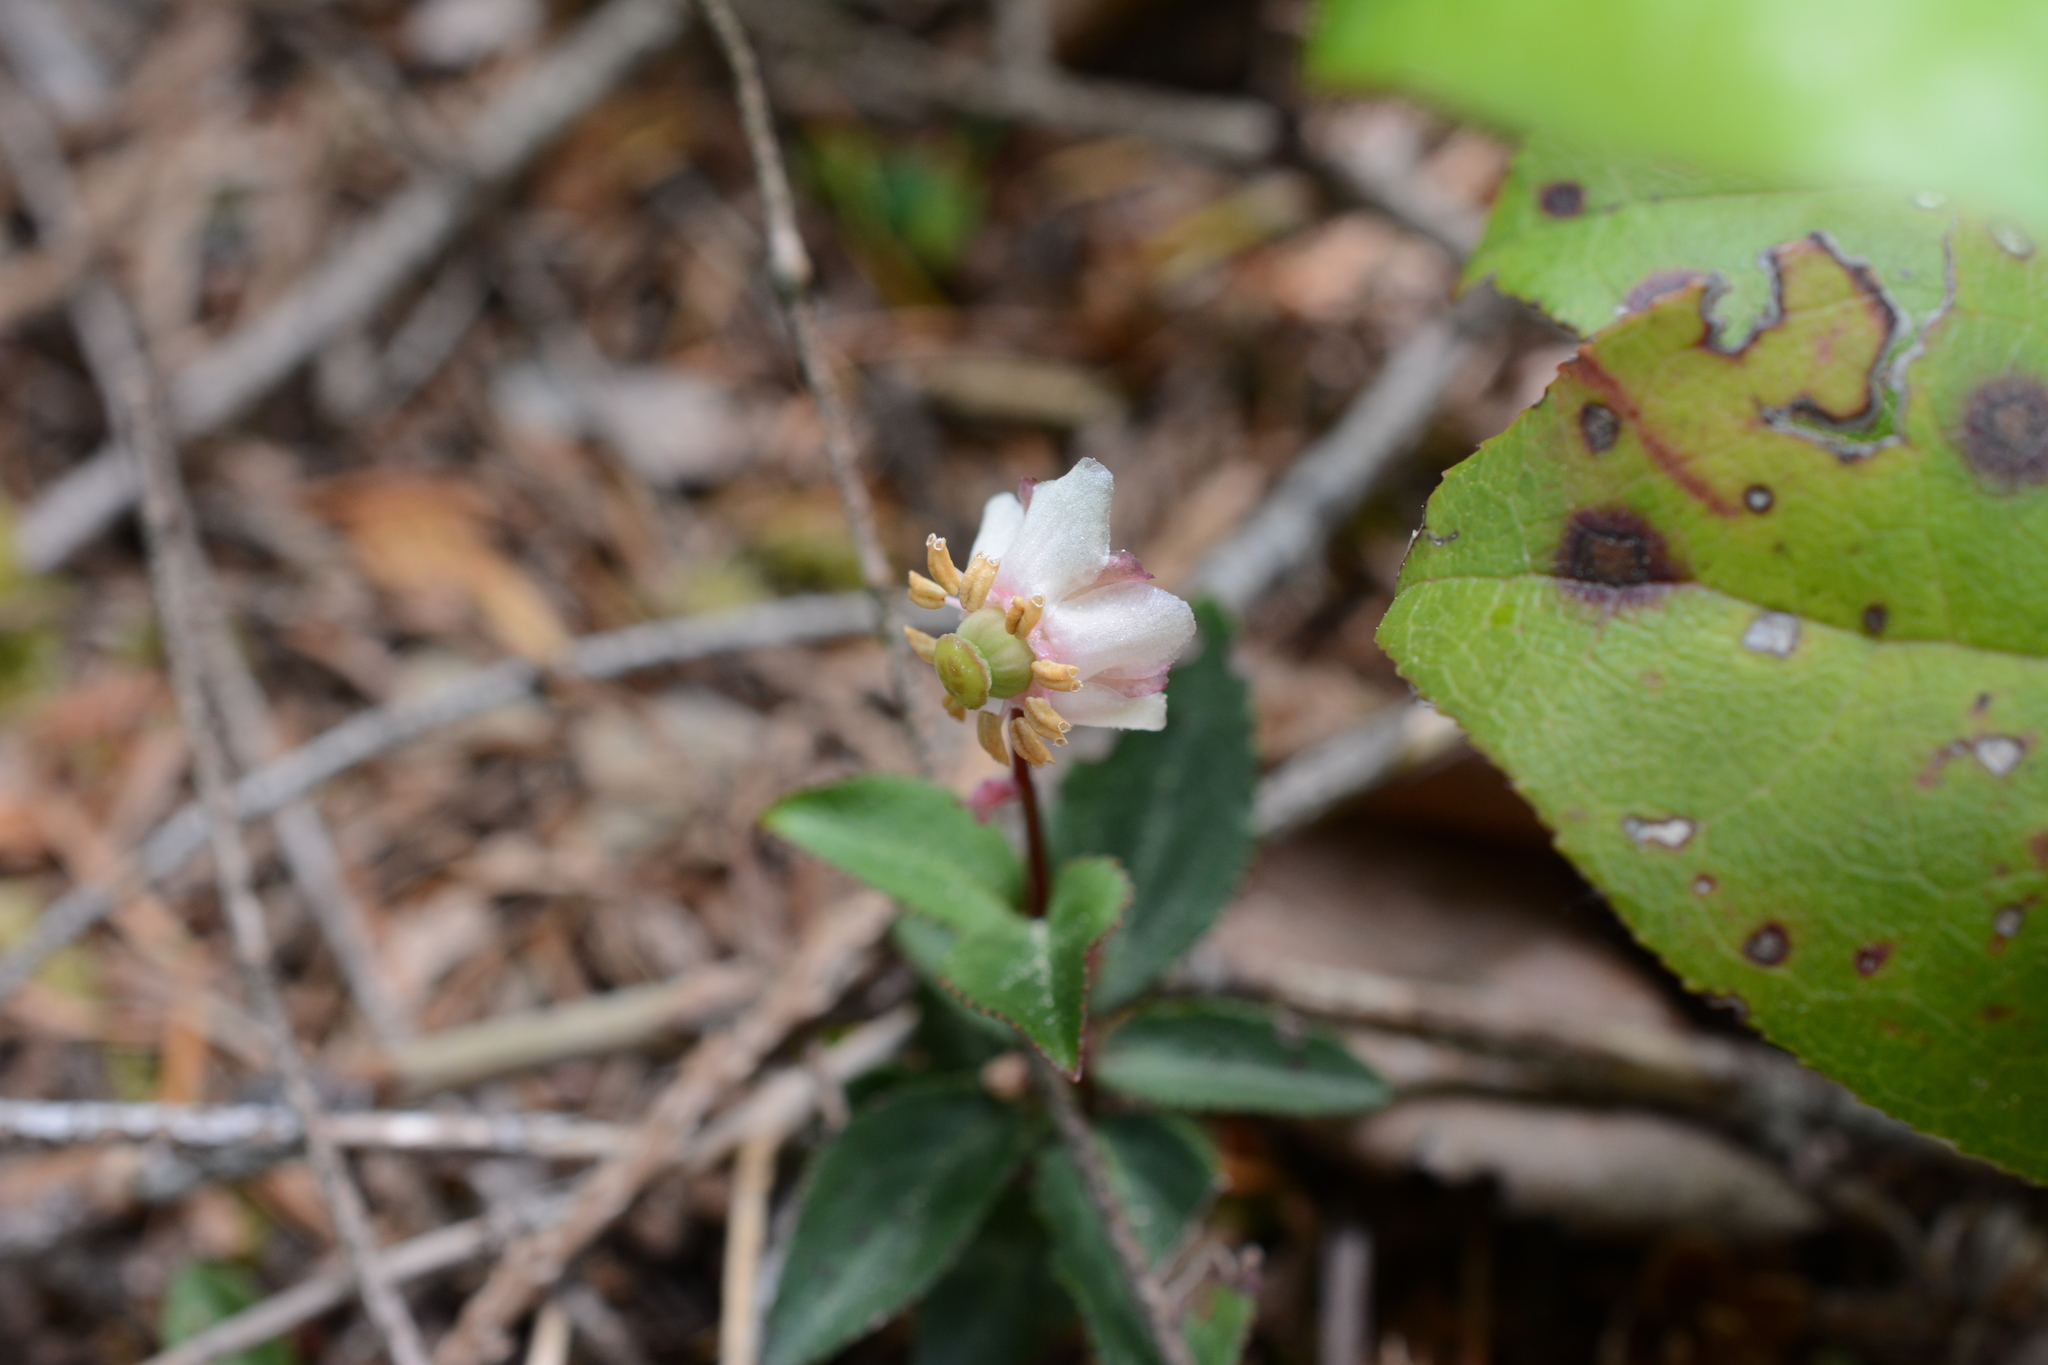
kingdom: Plantae
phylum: Tracheophyta
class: Magnoliopsida
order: Ericales
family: Ericaceae
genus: Chimaphila
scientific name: Chimaphila menziesii
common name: Menzies' pipsissewa
